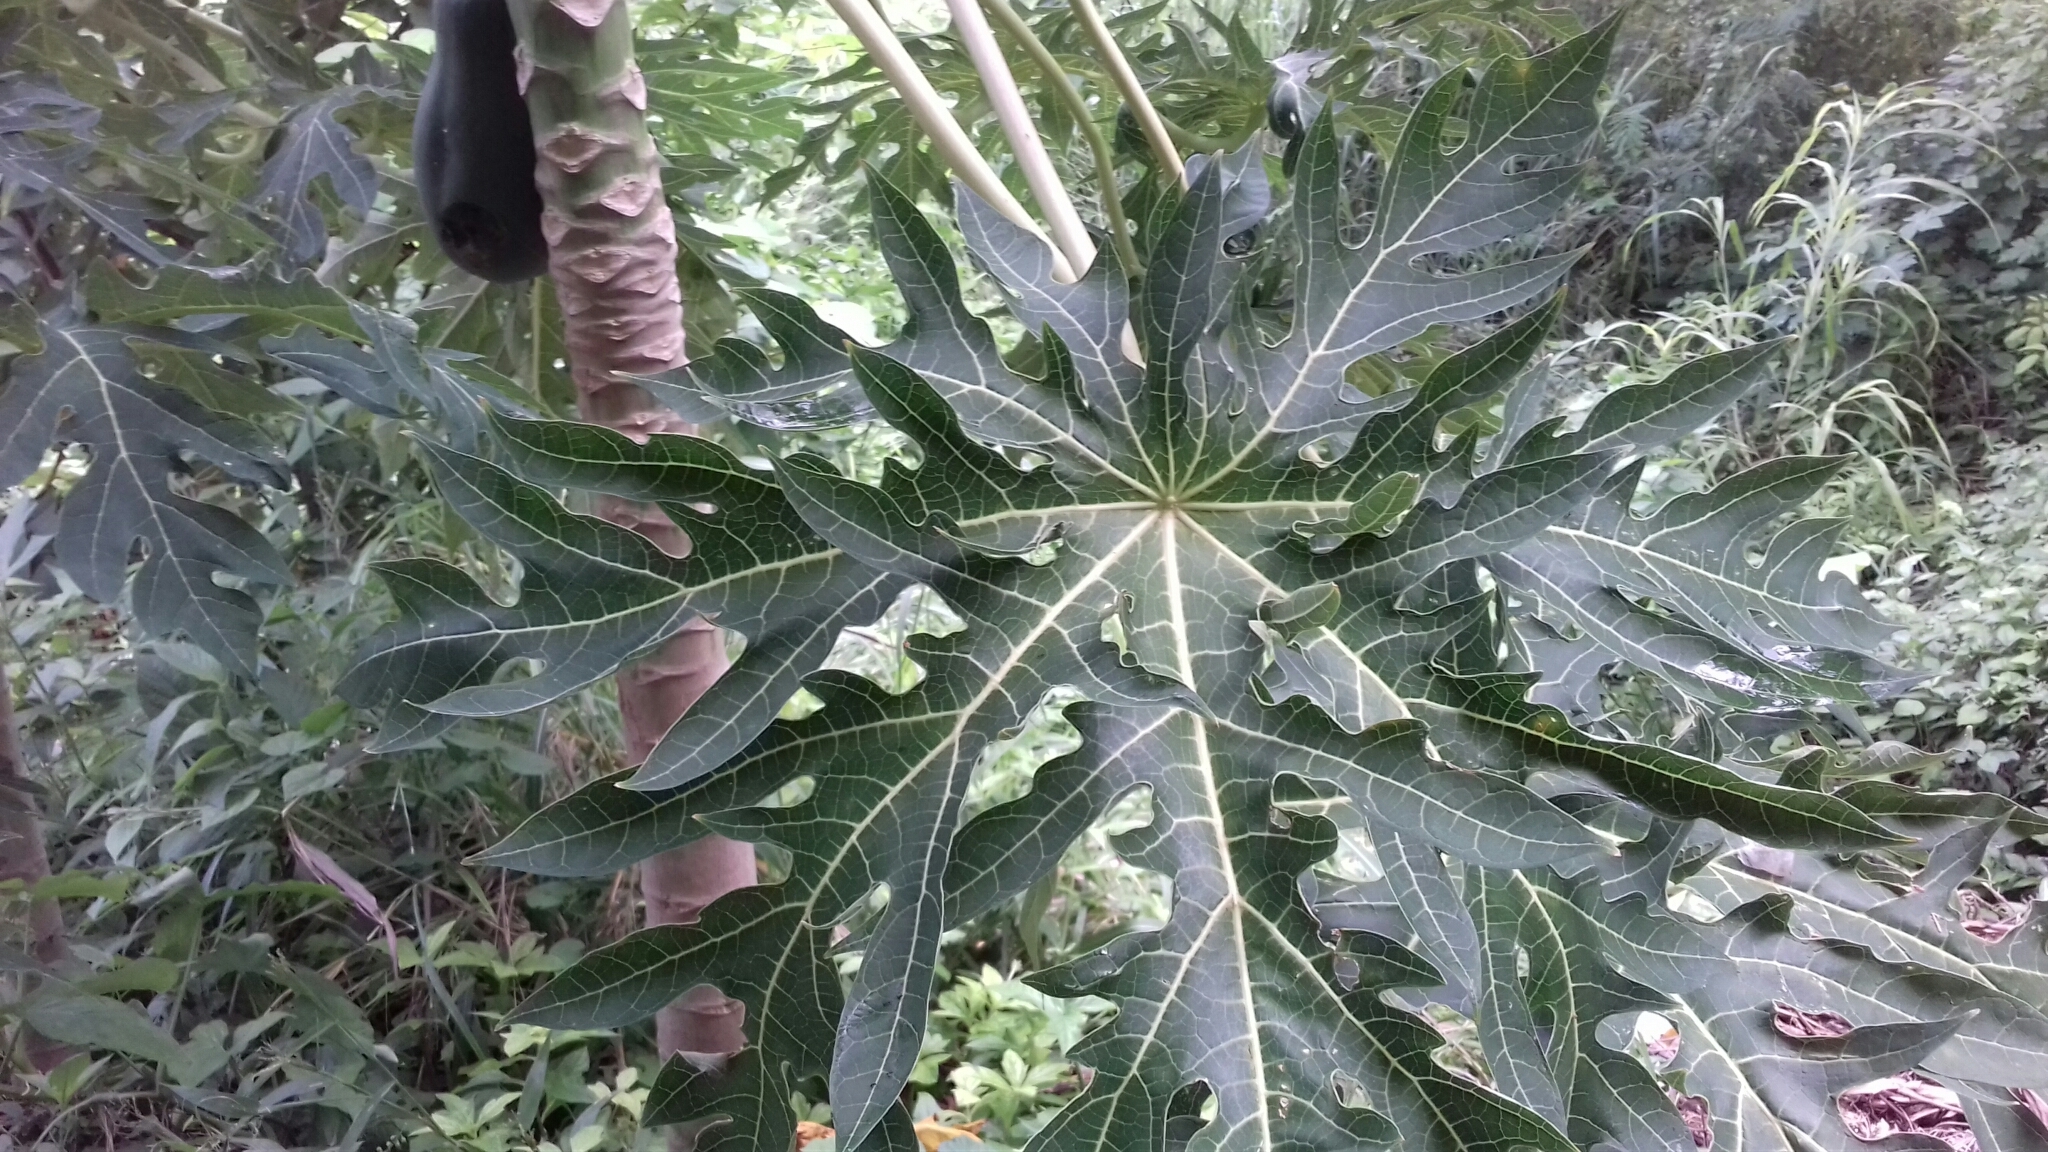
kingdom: Plantae
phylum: Tracheophyta
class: Magnoliopsida
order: Brassicales
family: Caricaceae
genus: Carica
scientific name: Carica papaya
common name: Papaya
